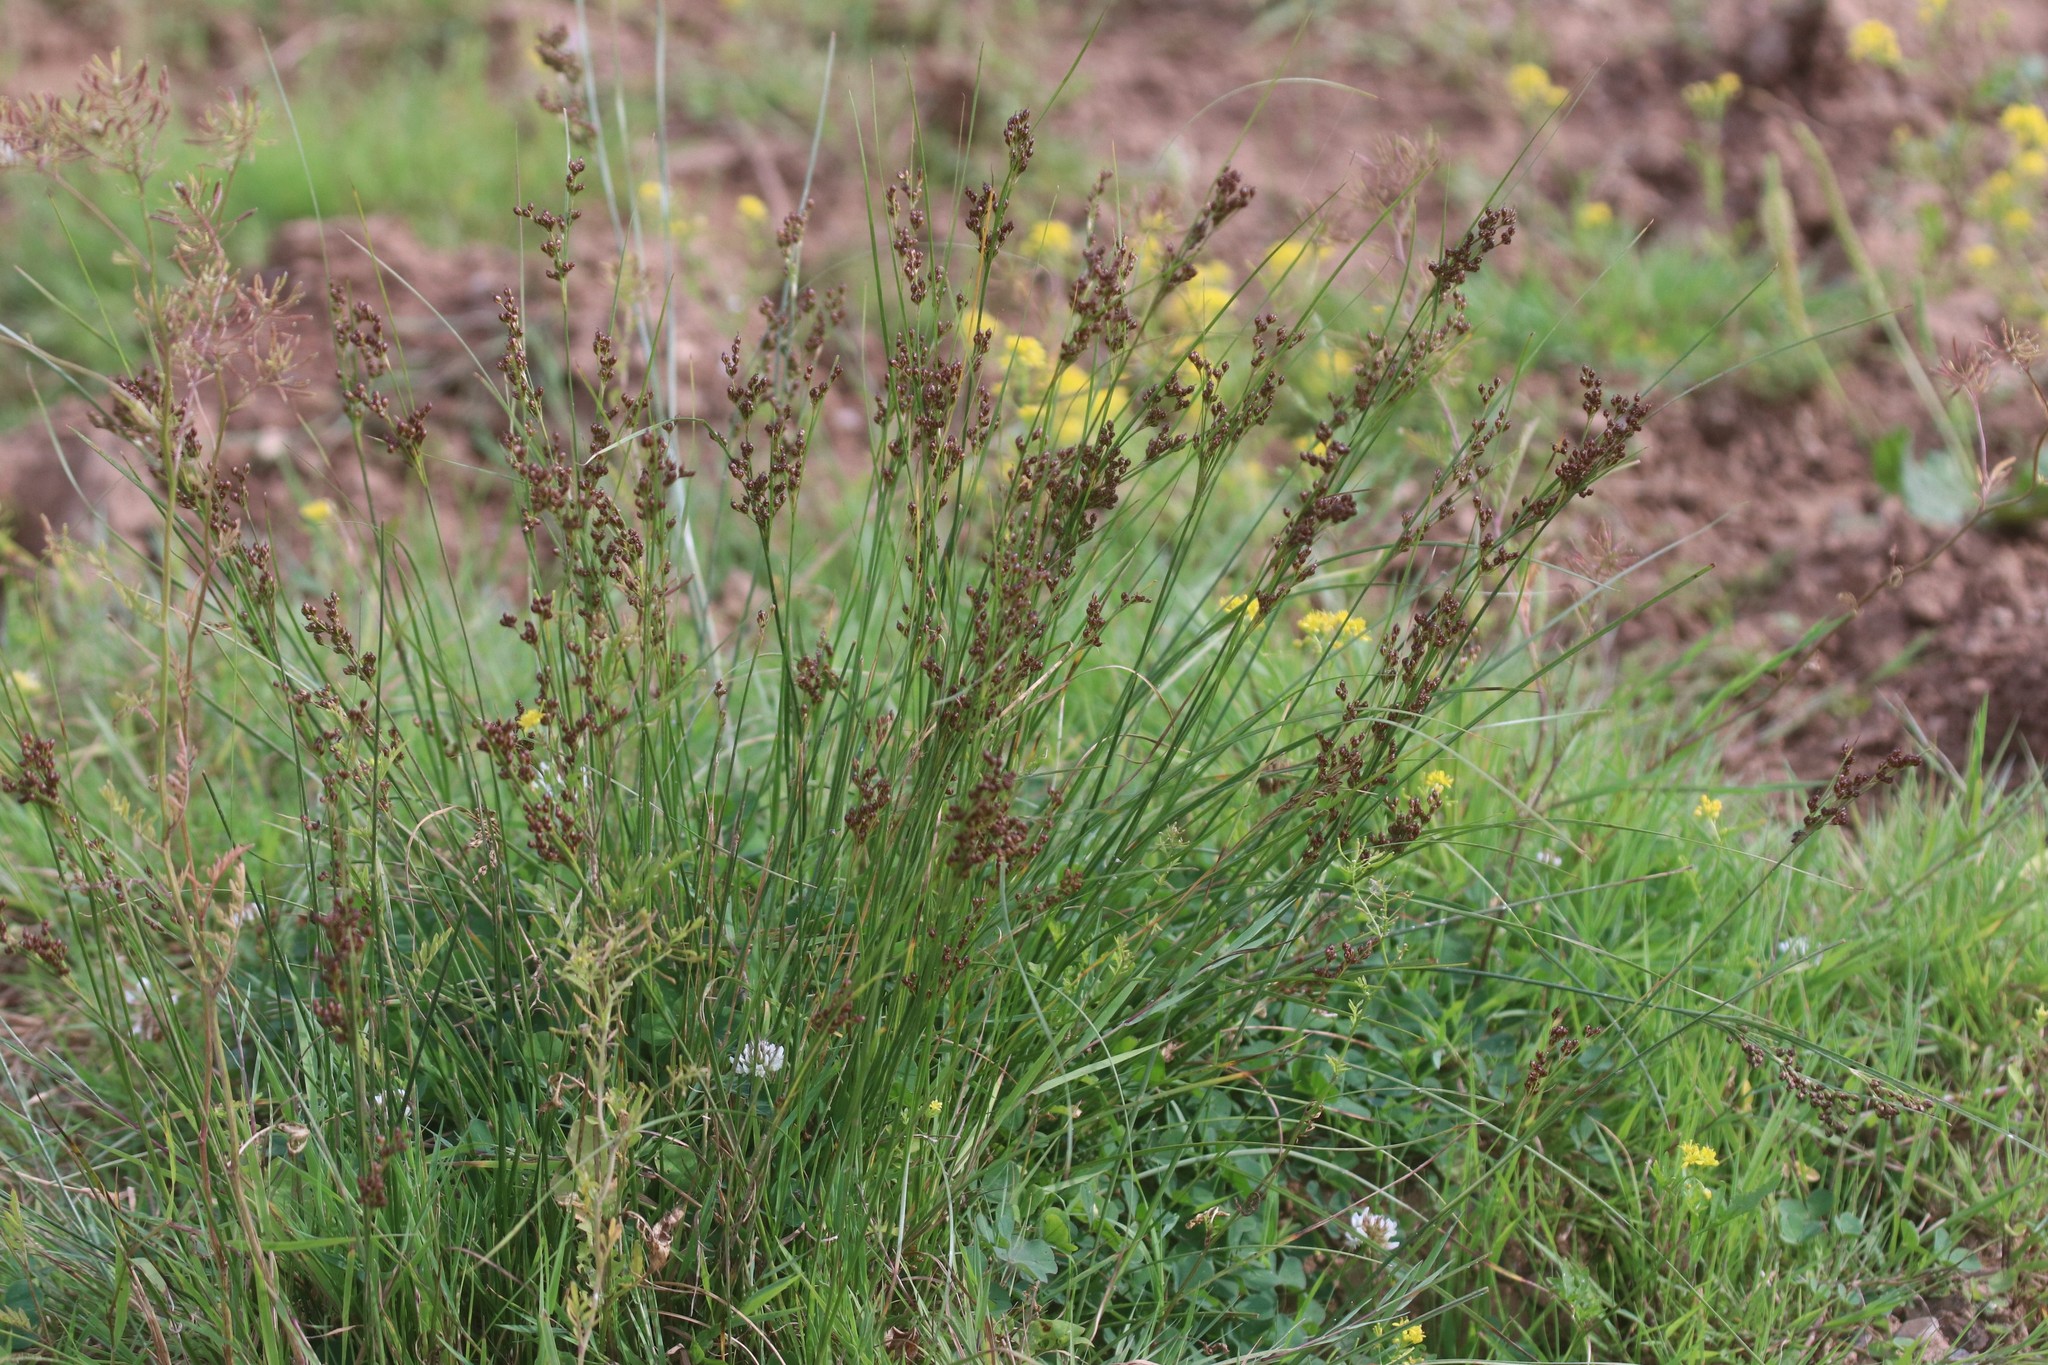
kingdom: Plantae
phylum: Tracheophyta
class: Liliopsida
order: Poales
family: Juncaceae
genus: Juncus
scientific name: Juncus compressus
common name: Round-fruited rush
